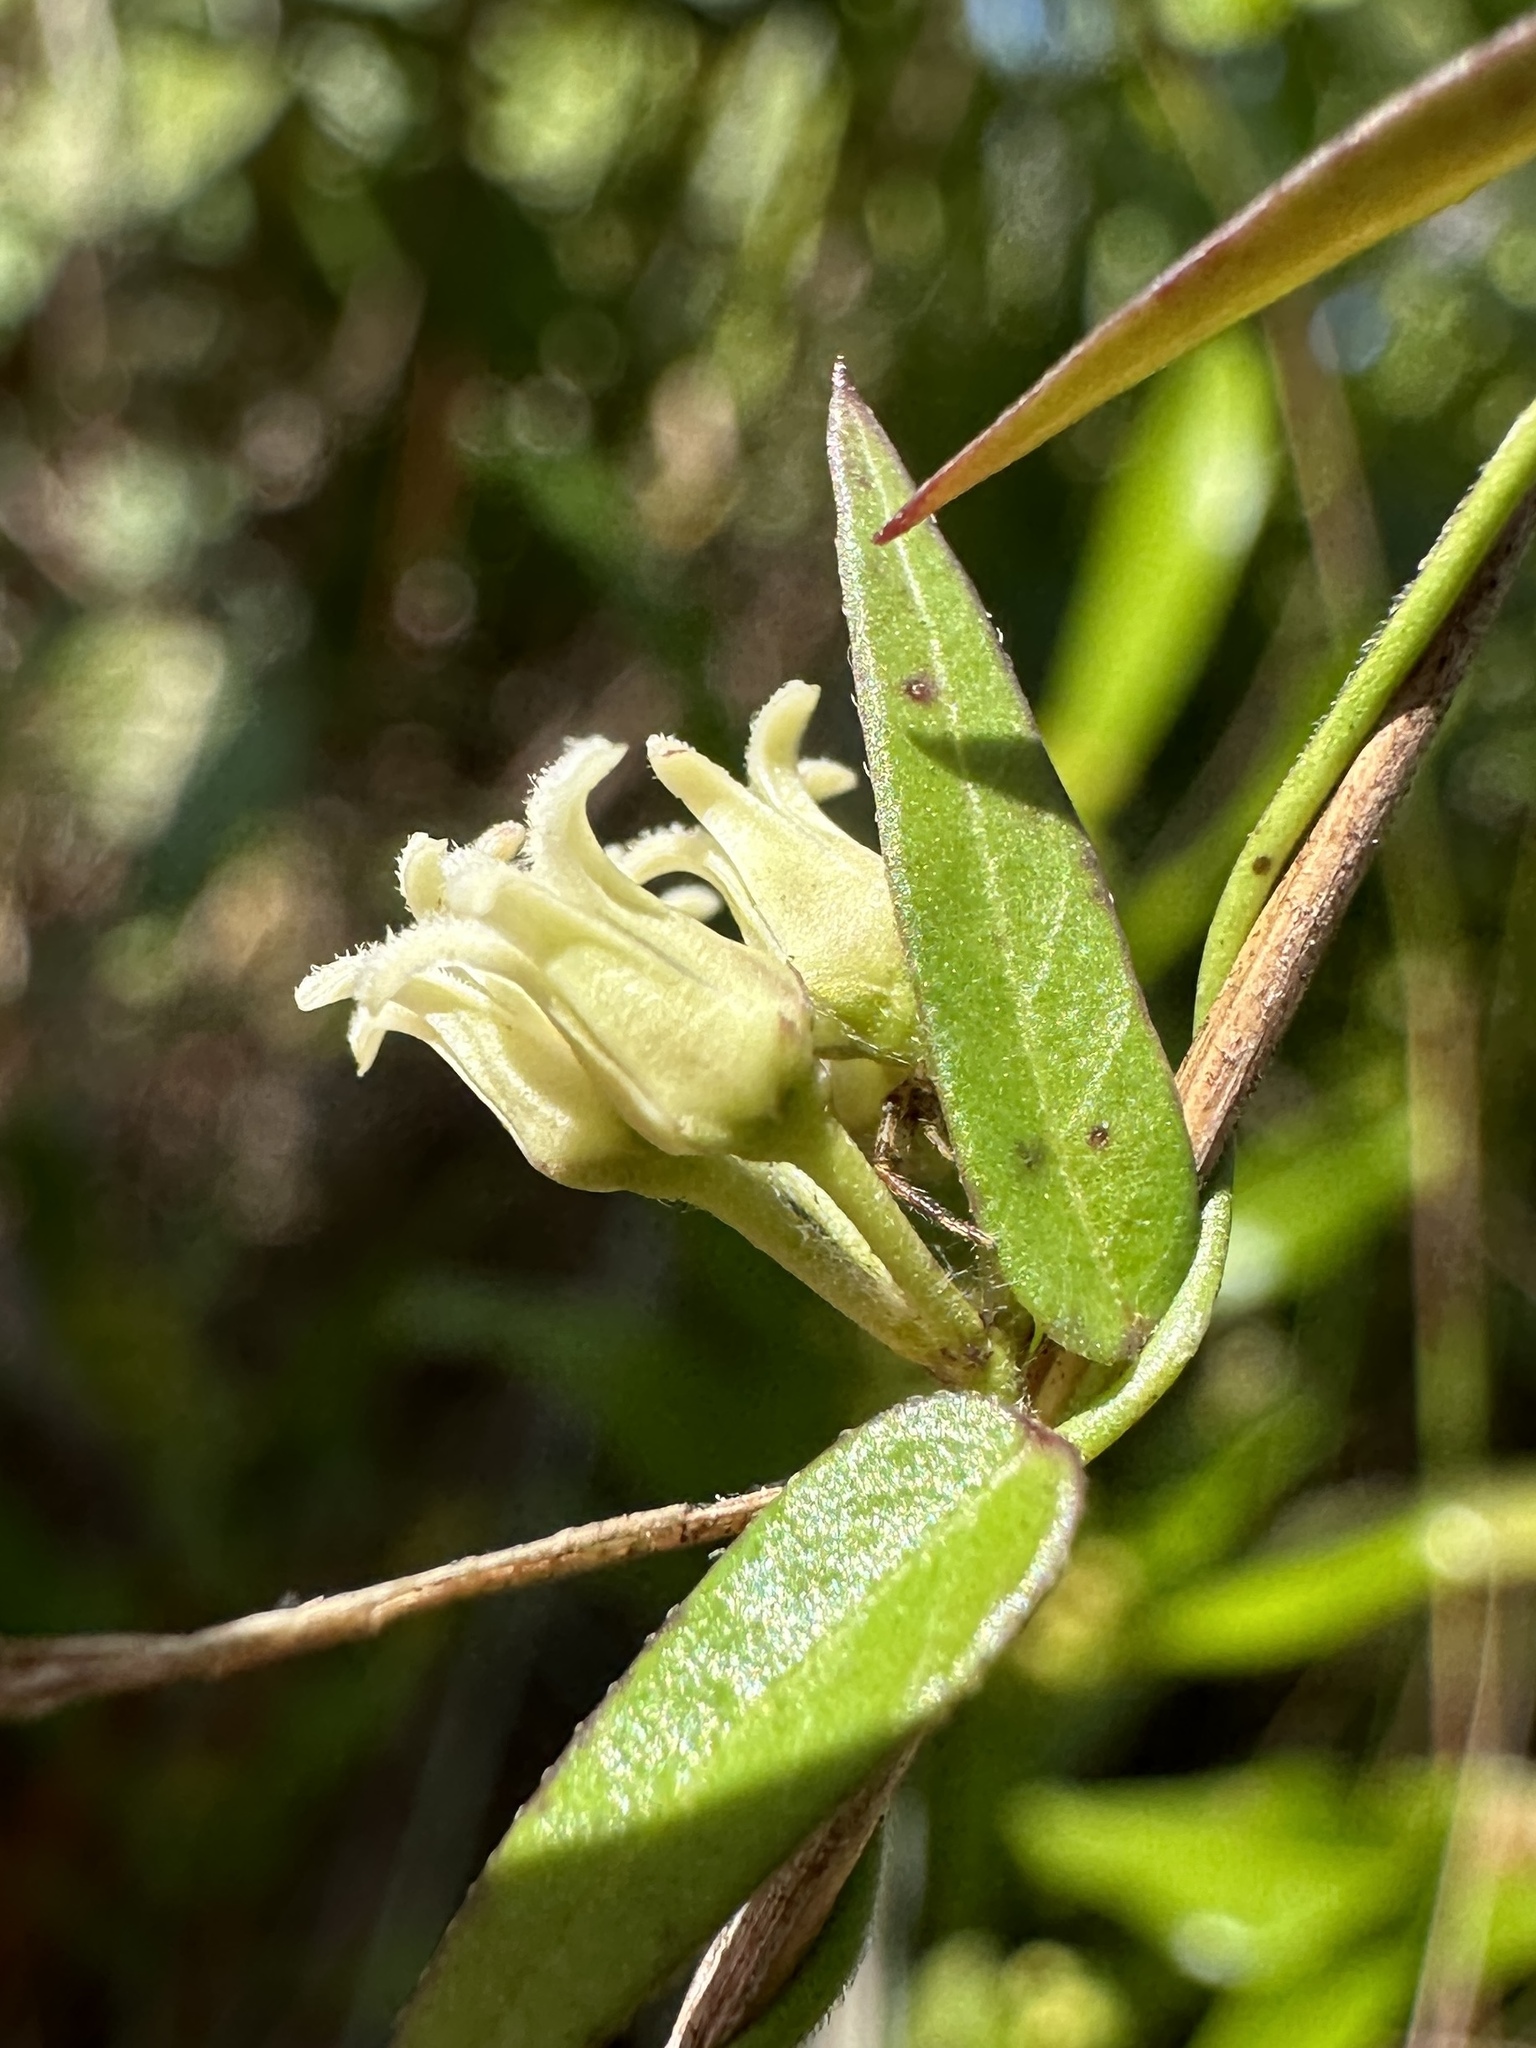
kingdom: Plantae
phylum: Tracheophyta
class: Magnoliopsida
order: Gentianales
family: Apocynaceae
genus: Metastelma
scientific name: Metastelma blodgettii
